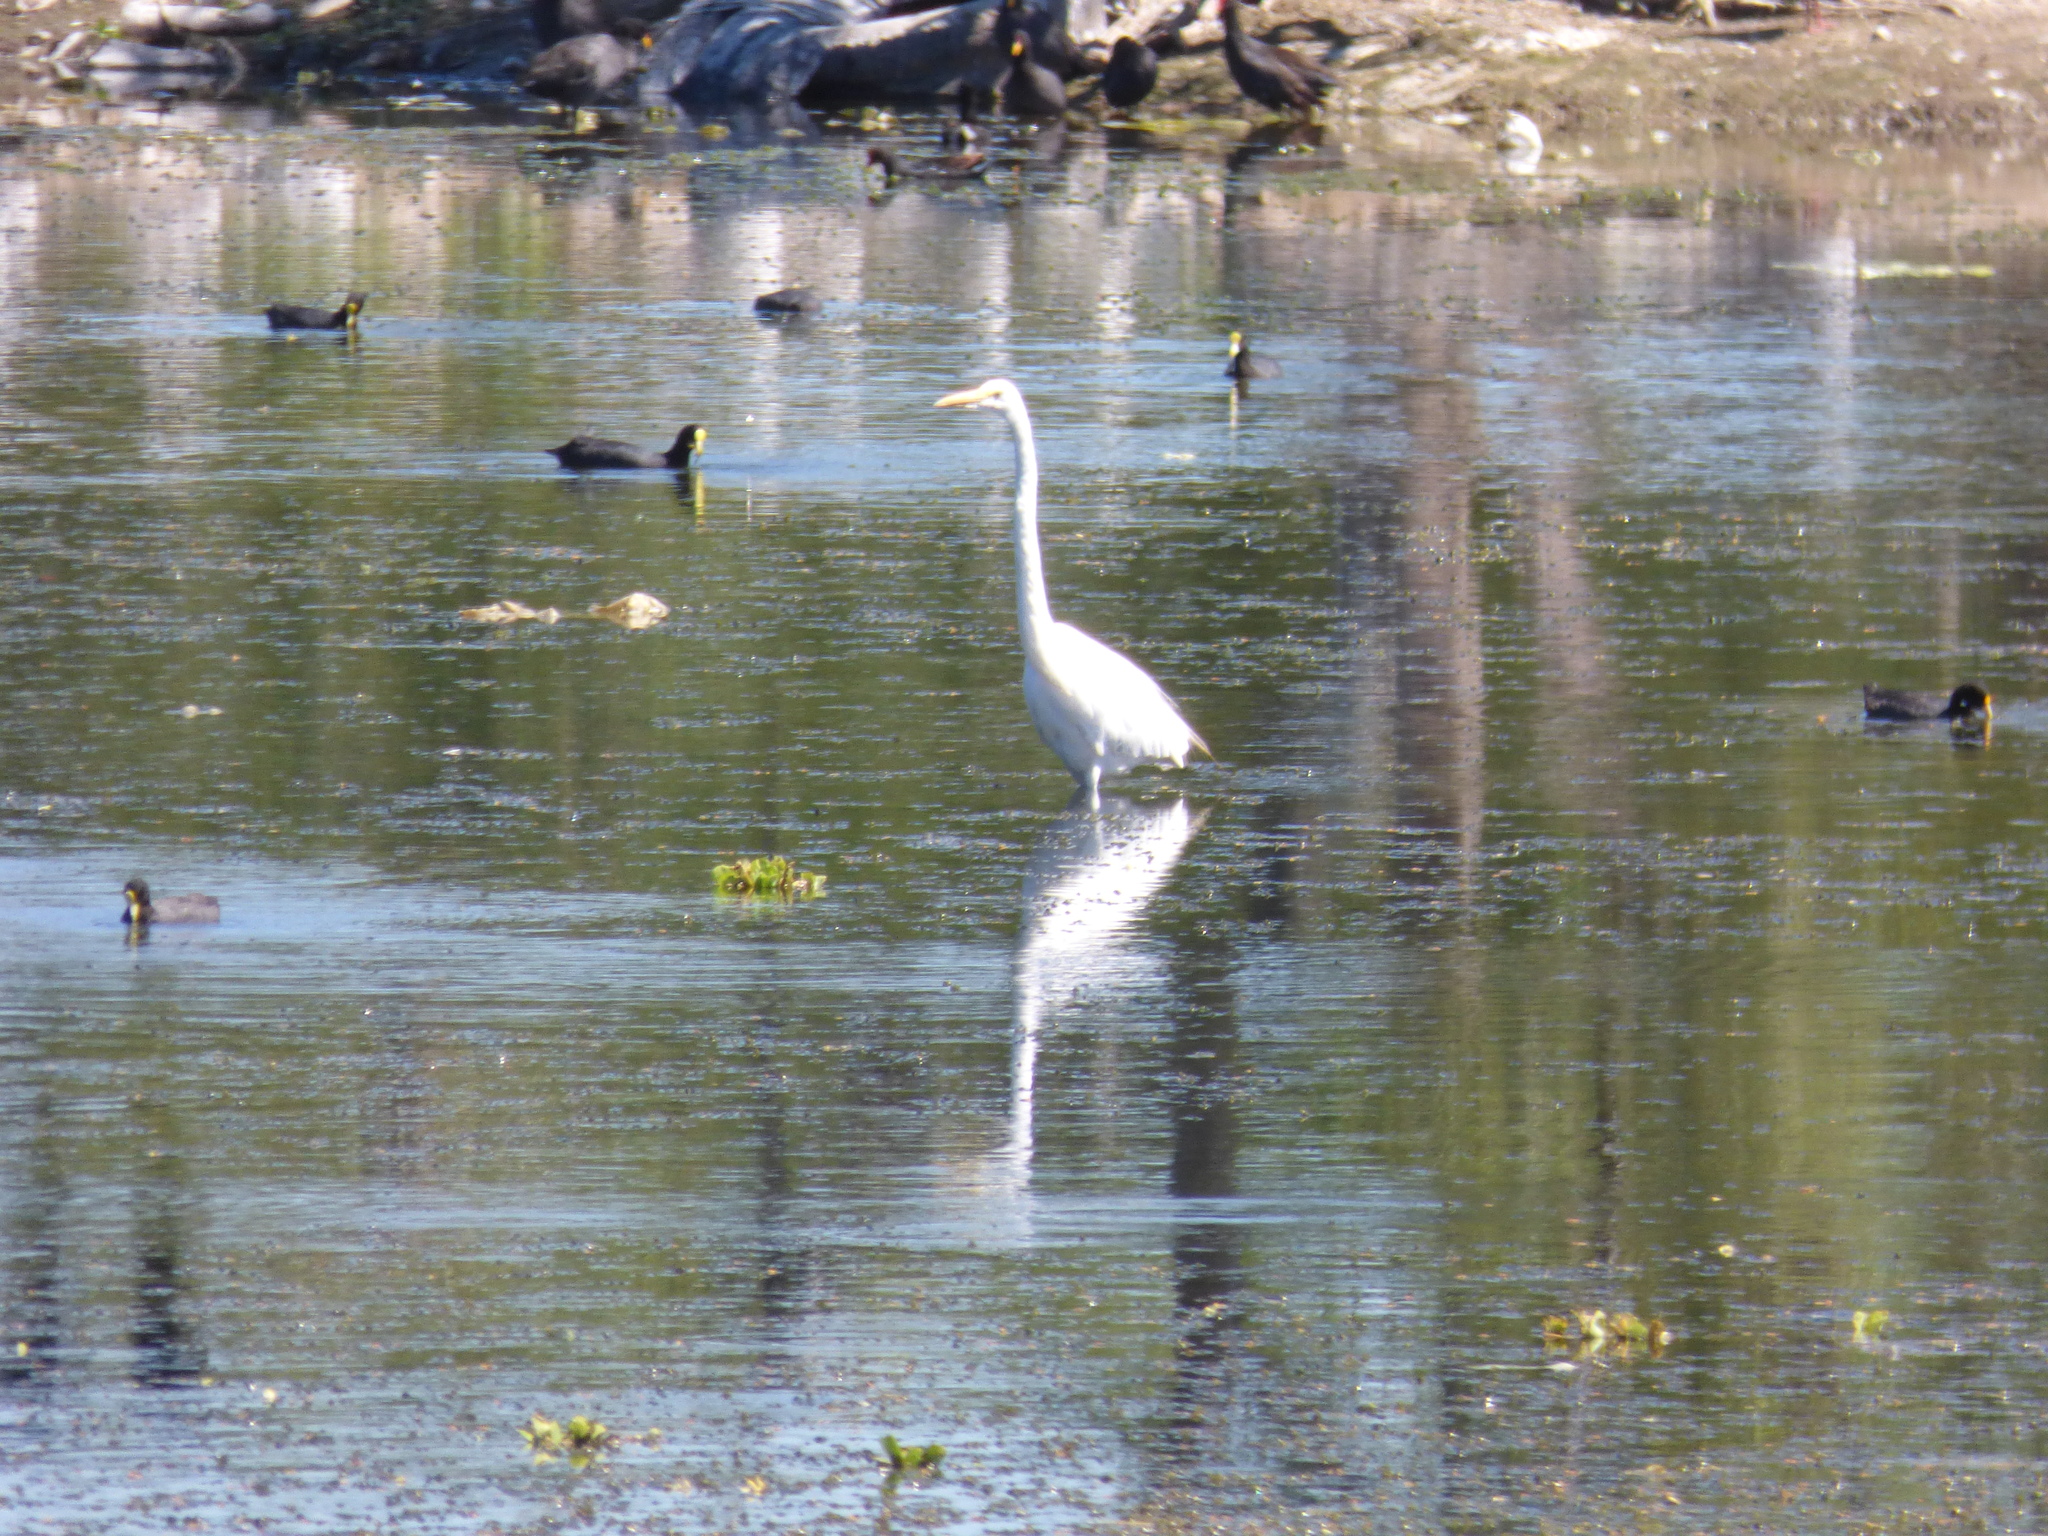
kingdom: Animalia
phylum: Chordata
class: Aves
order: Pelecaniformes
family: Ardeidae
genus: Ardea
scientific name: Ardea alba
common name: Great egret
